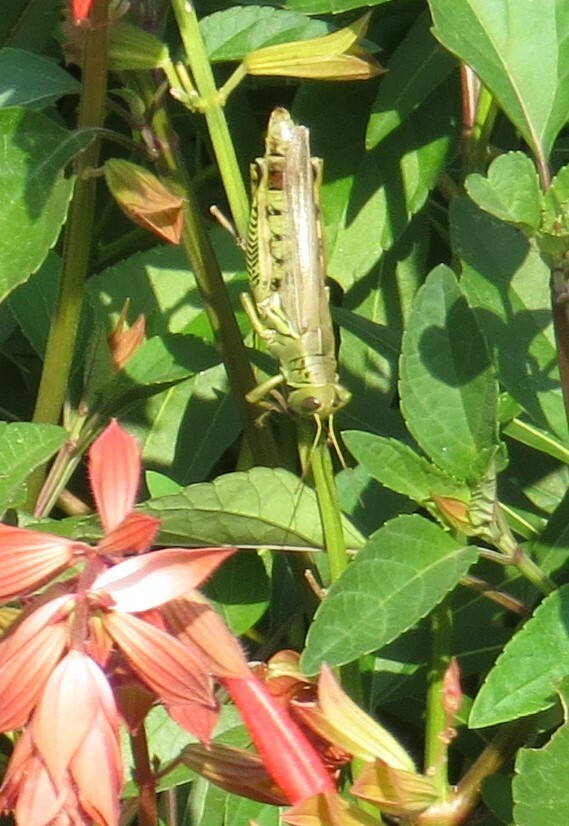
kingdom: Animalia
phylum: Arthropoda
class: Insecta
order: Orthoptera
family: Acrididae
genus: Melanoplus
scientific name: Melanoplus differentialis
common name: Differential grasshopper
